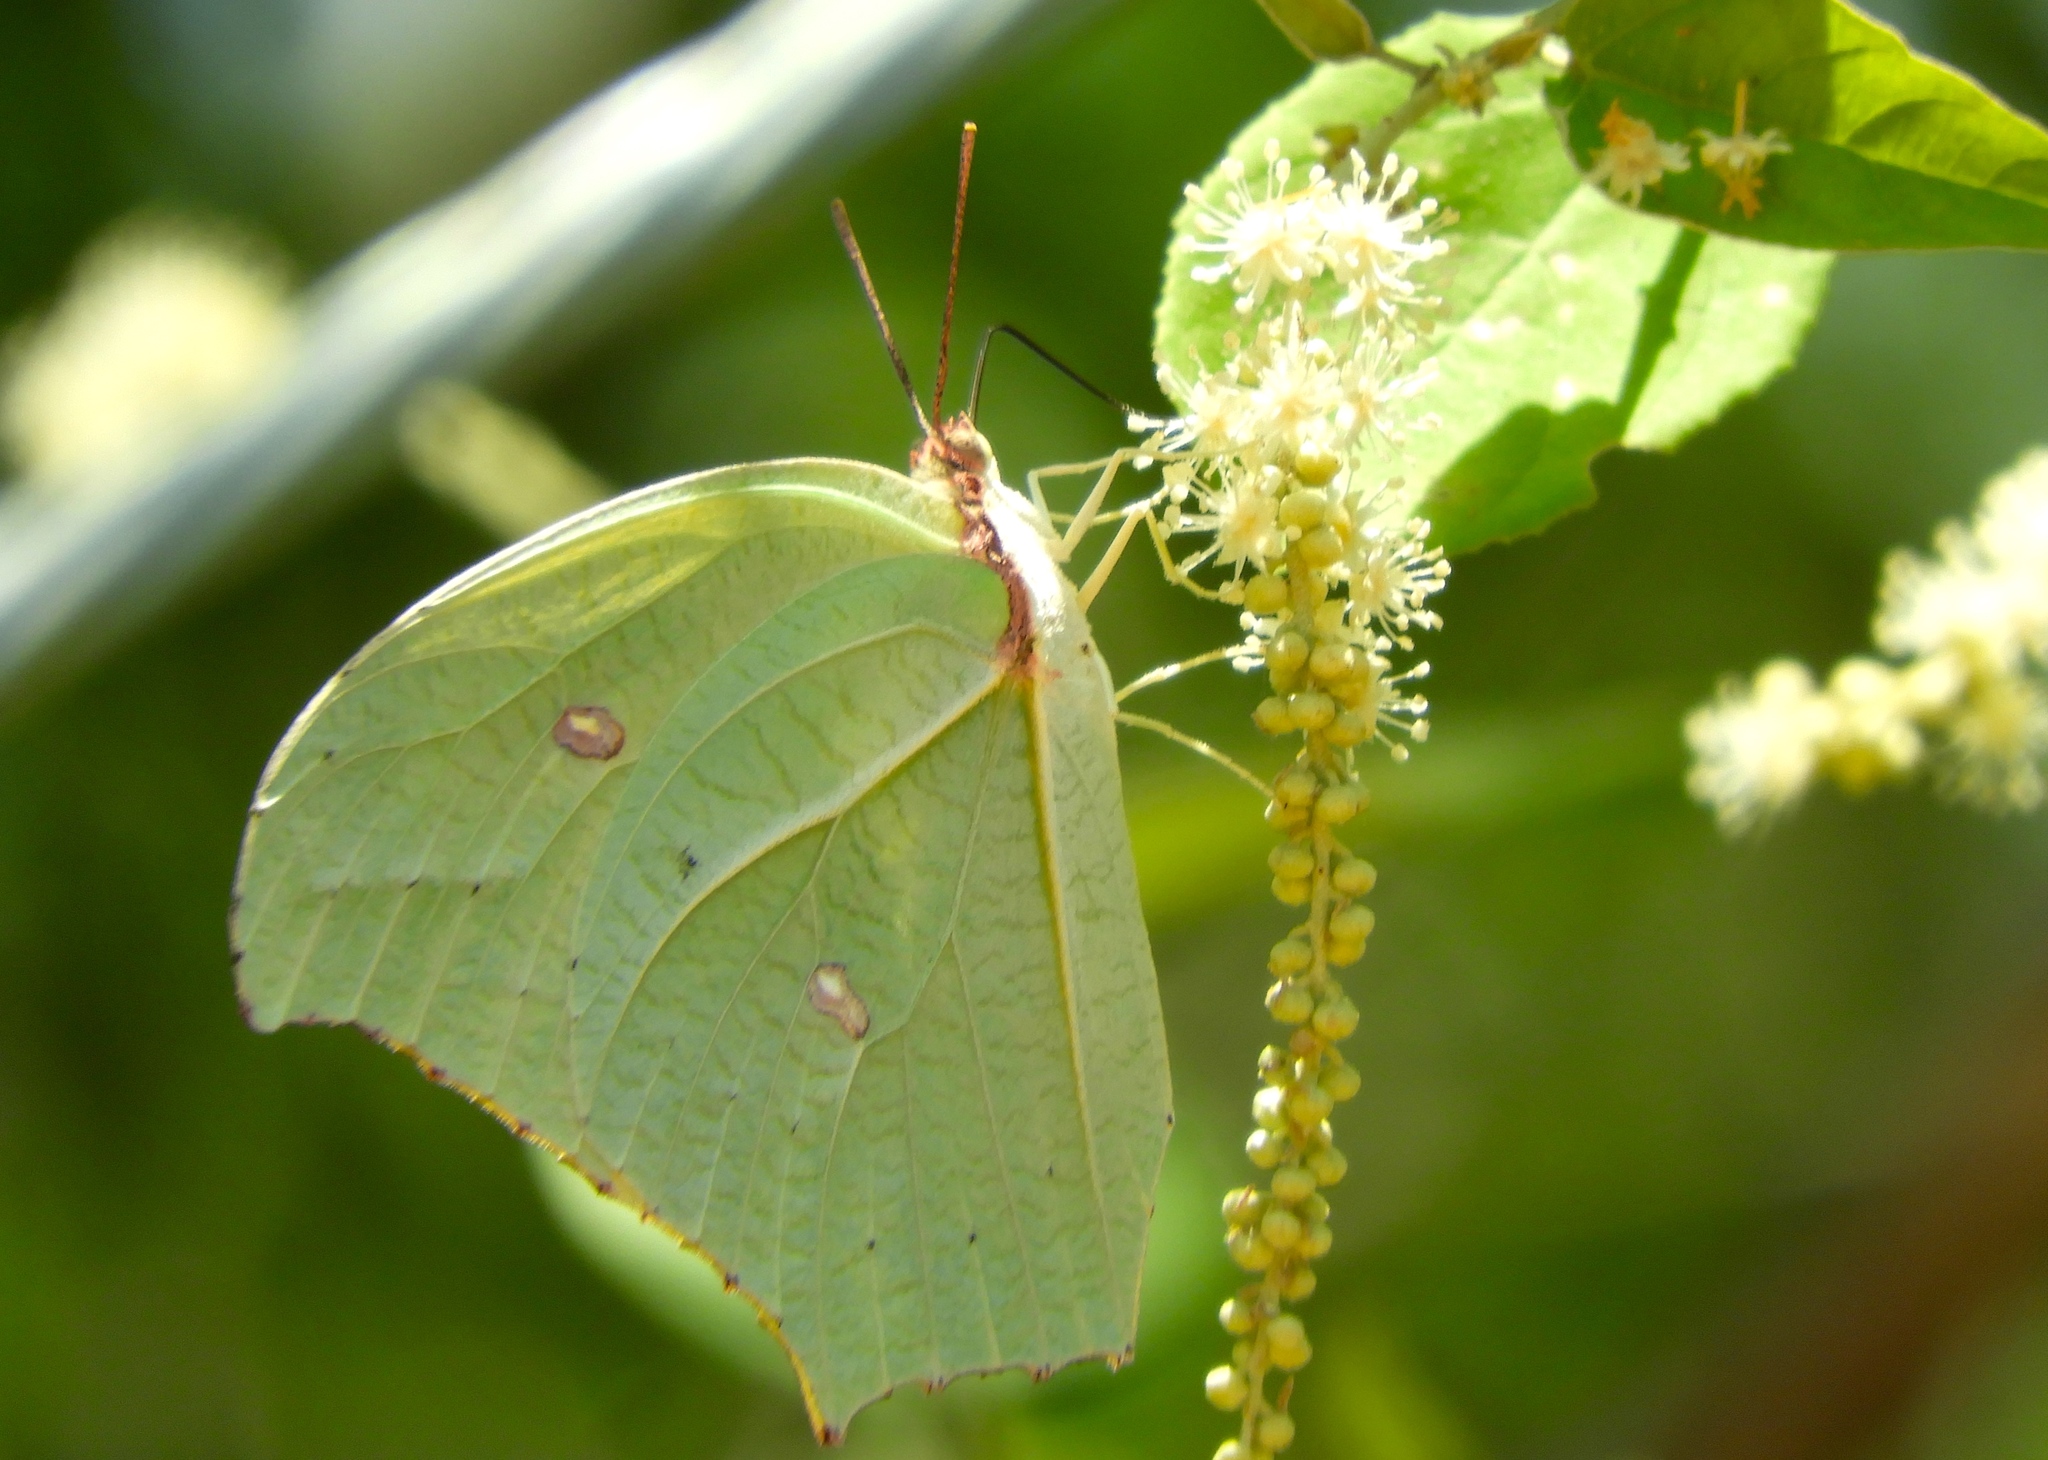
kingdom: Animalia
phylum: Arthropoda
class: Insecta
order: Lepidoptera
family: Pieridae
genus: Anteos
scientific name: Anteos maerula
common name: Angled sulphur
